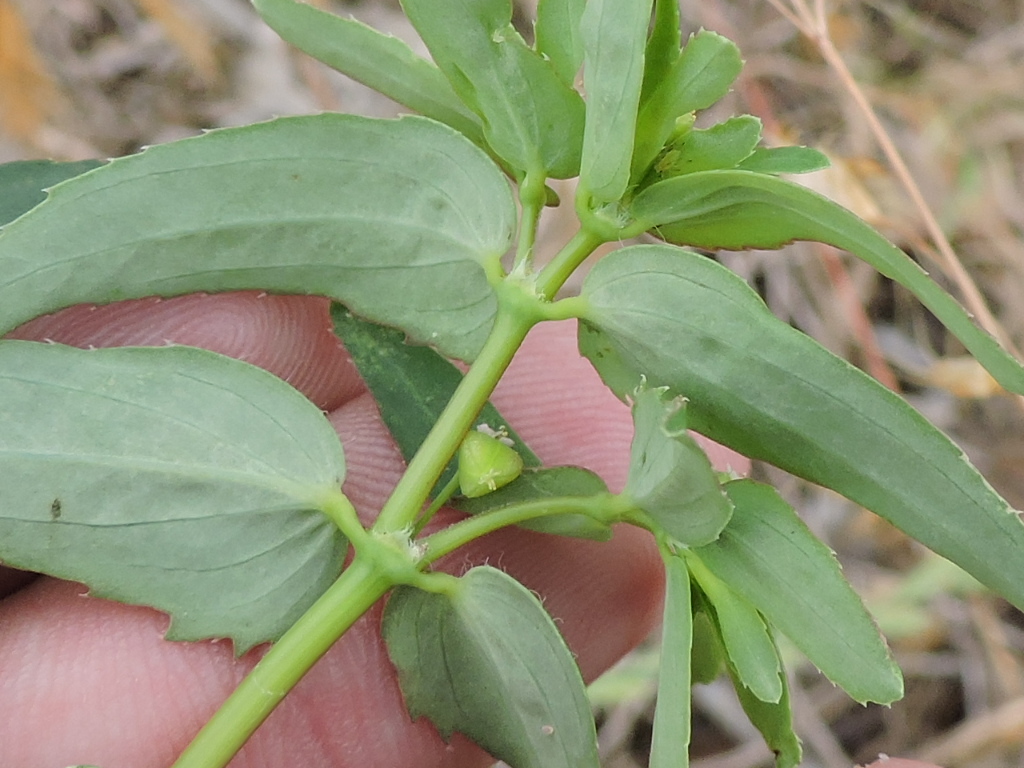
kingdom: Plantae
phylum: Tracheophyta
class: Magnoliopsida
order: Malpighiales
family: Euphorbiaceae
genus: Euphorbia
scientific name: Euphorbia nutans
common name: Eyebane
